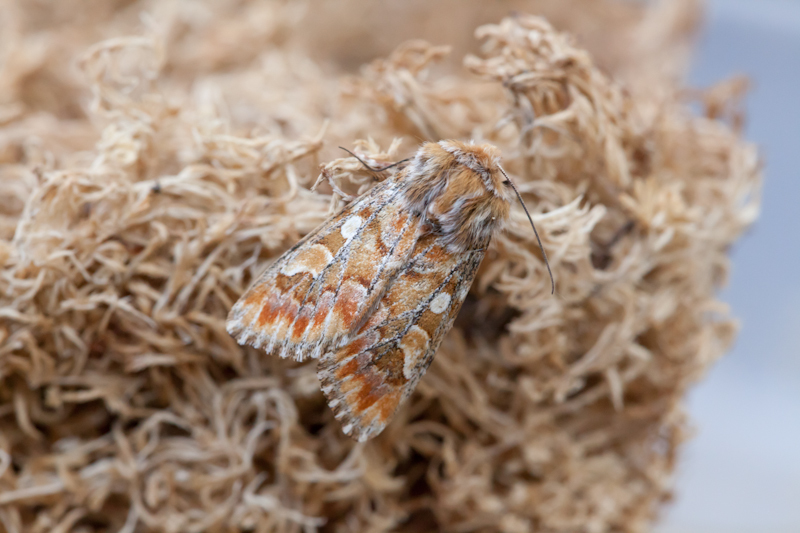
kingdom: Animalia
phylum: Arthropoda
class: Insecta
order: Lepidoptera
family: Noctuidae
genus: Panolis
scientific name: Panolis flammea
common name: Pine beauty
